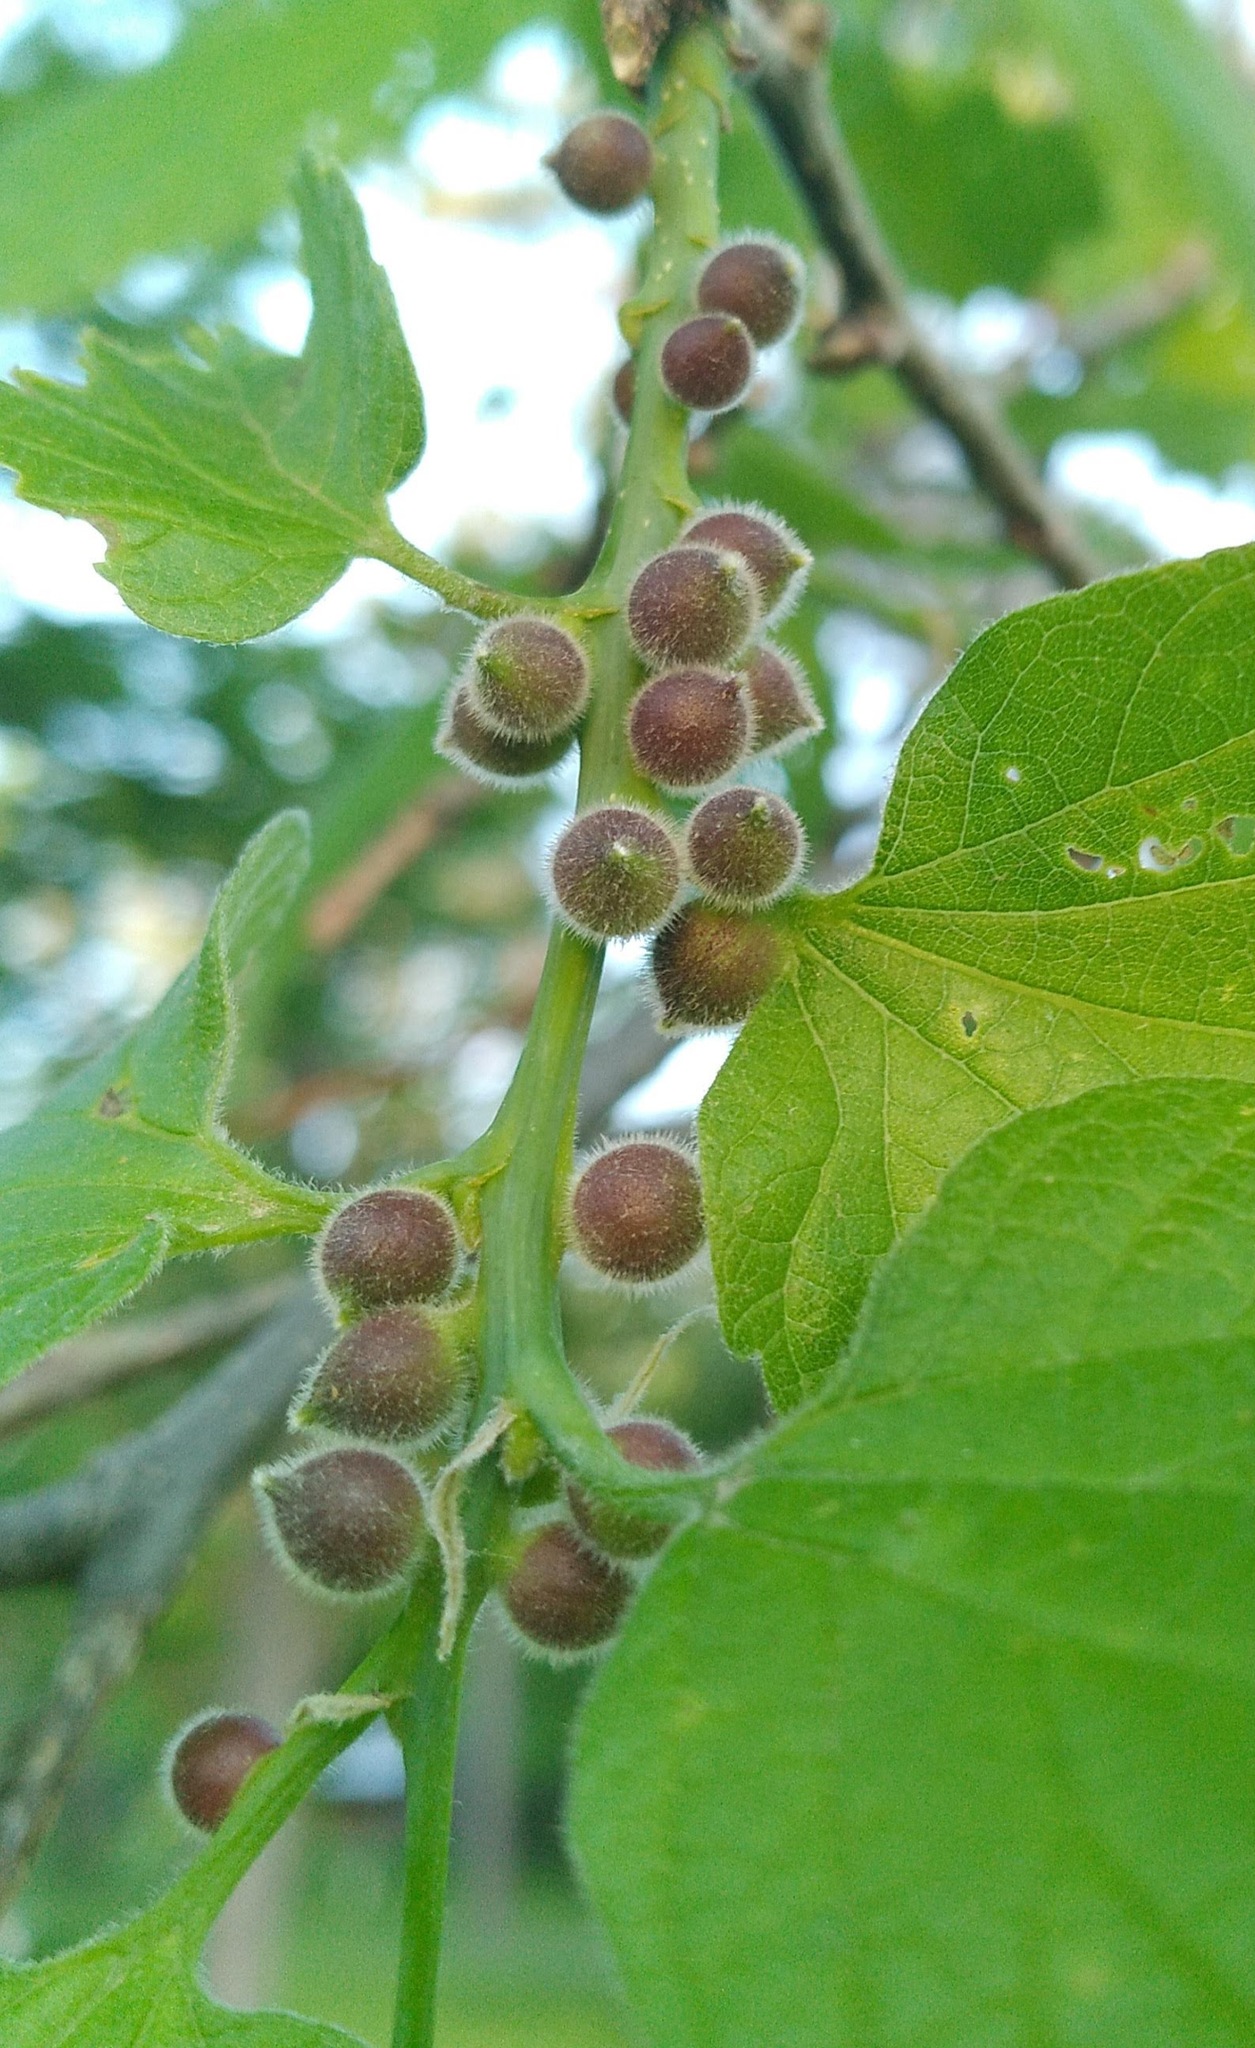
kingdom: Animalia
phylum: Arthropoda
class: Insecta
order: Diptera
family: Cecidomyiidae
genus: Celticecis
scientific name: Celticecis oviformis
